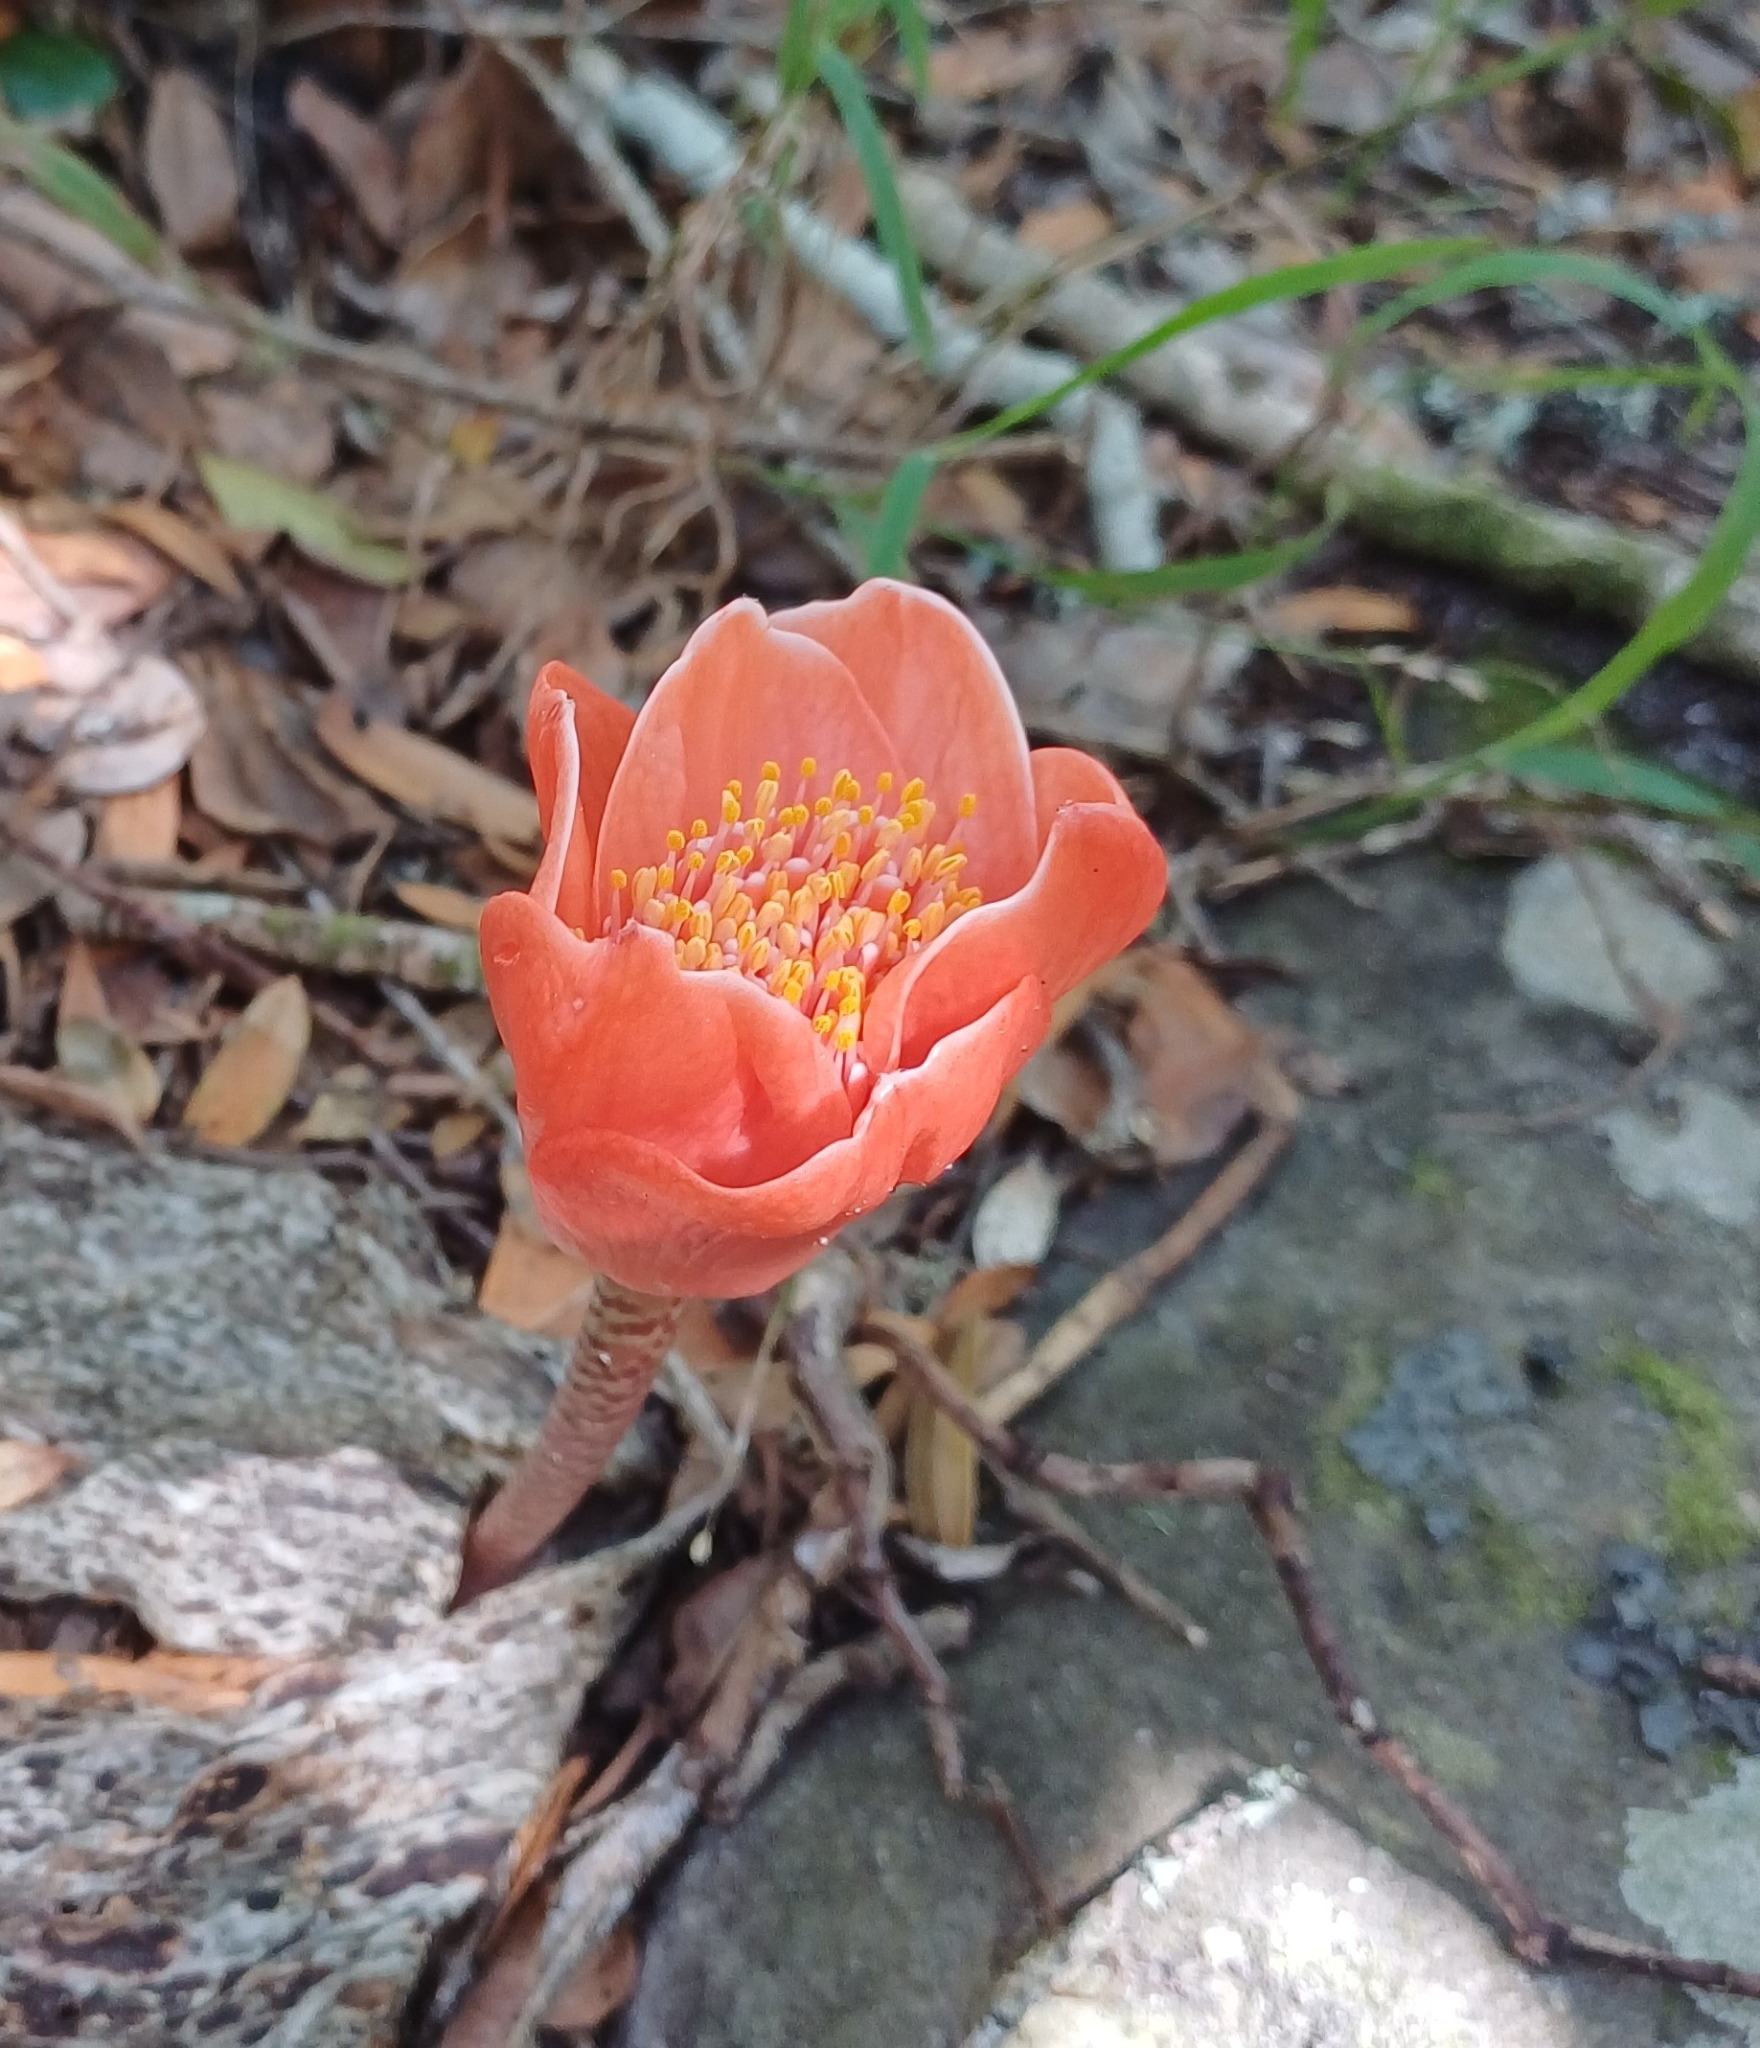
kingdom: Plantae
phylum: Tracheophyta
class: Liliopsida
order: Asparagales
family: Amaryllidaceae
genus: Haemanthus
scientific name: Haemanthus coccineus
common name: Cape-tulip
